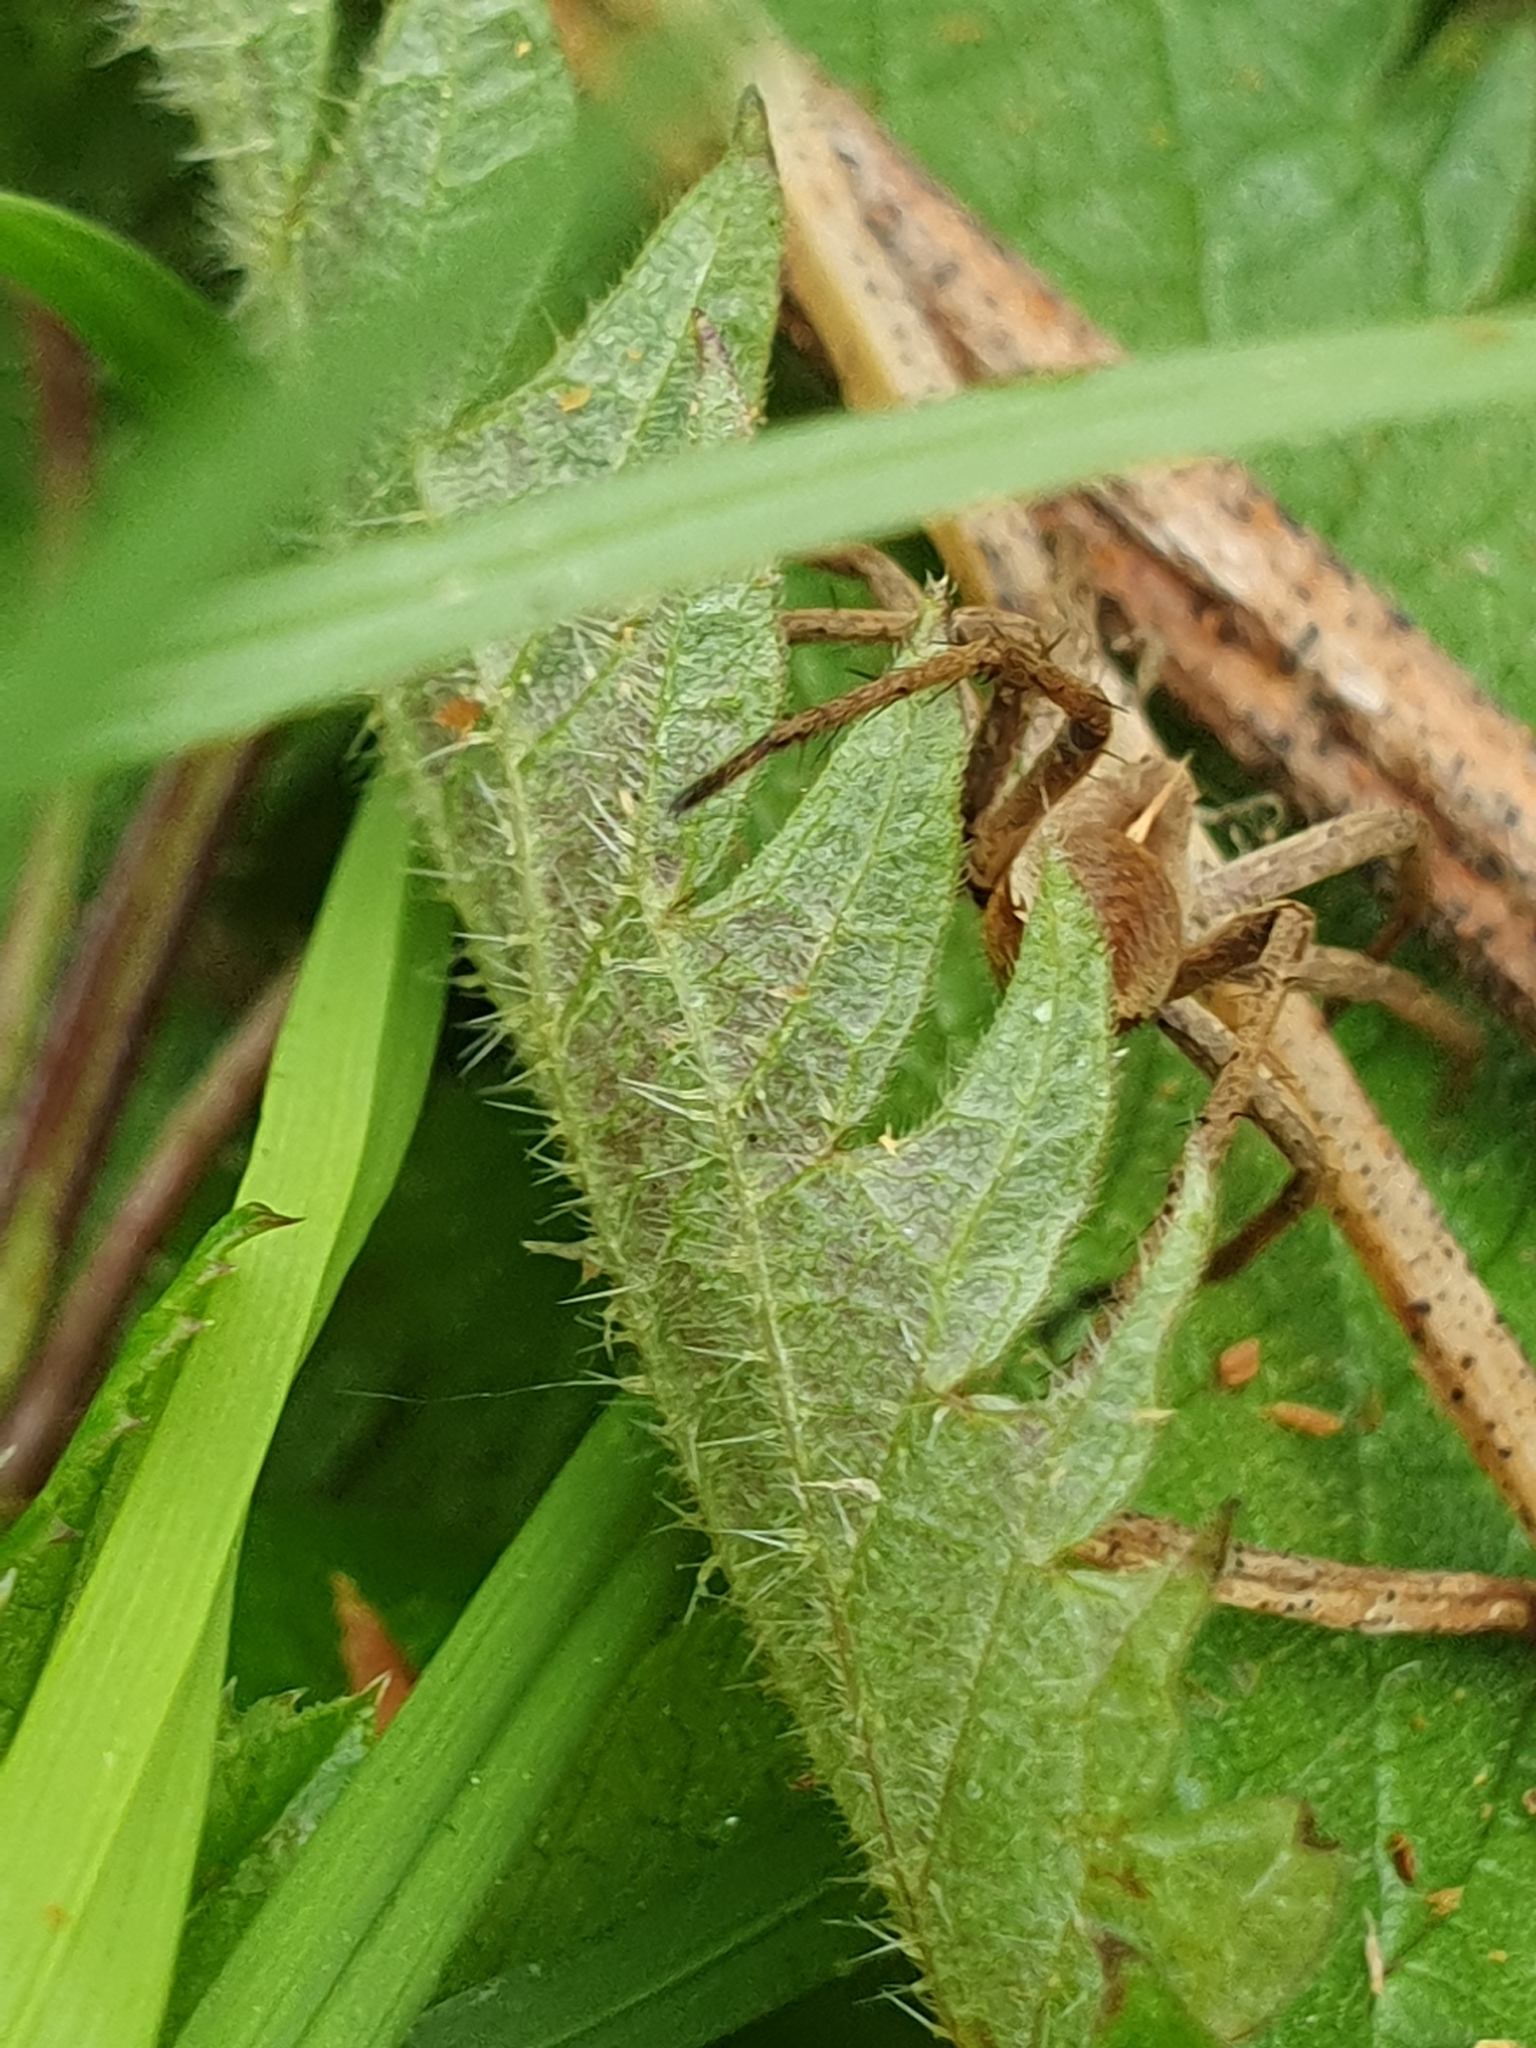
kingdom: Animalia
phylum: Arthropoda
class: Arachnida
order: Araneae
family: Pisauridae
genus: Pisaura
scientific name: Pisaura mirabilis
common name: Tent spider
